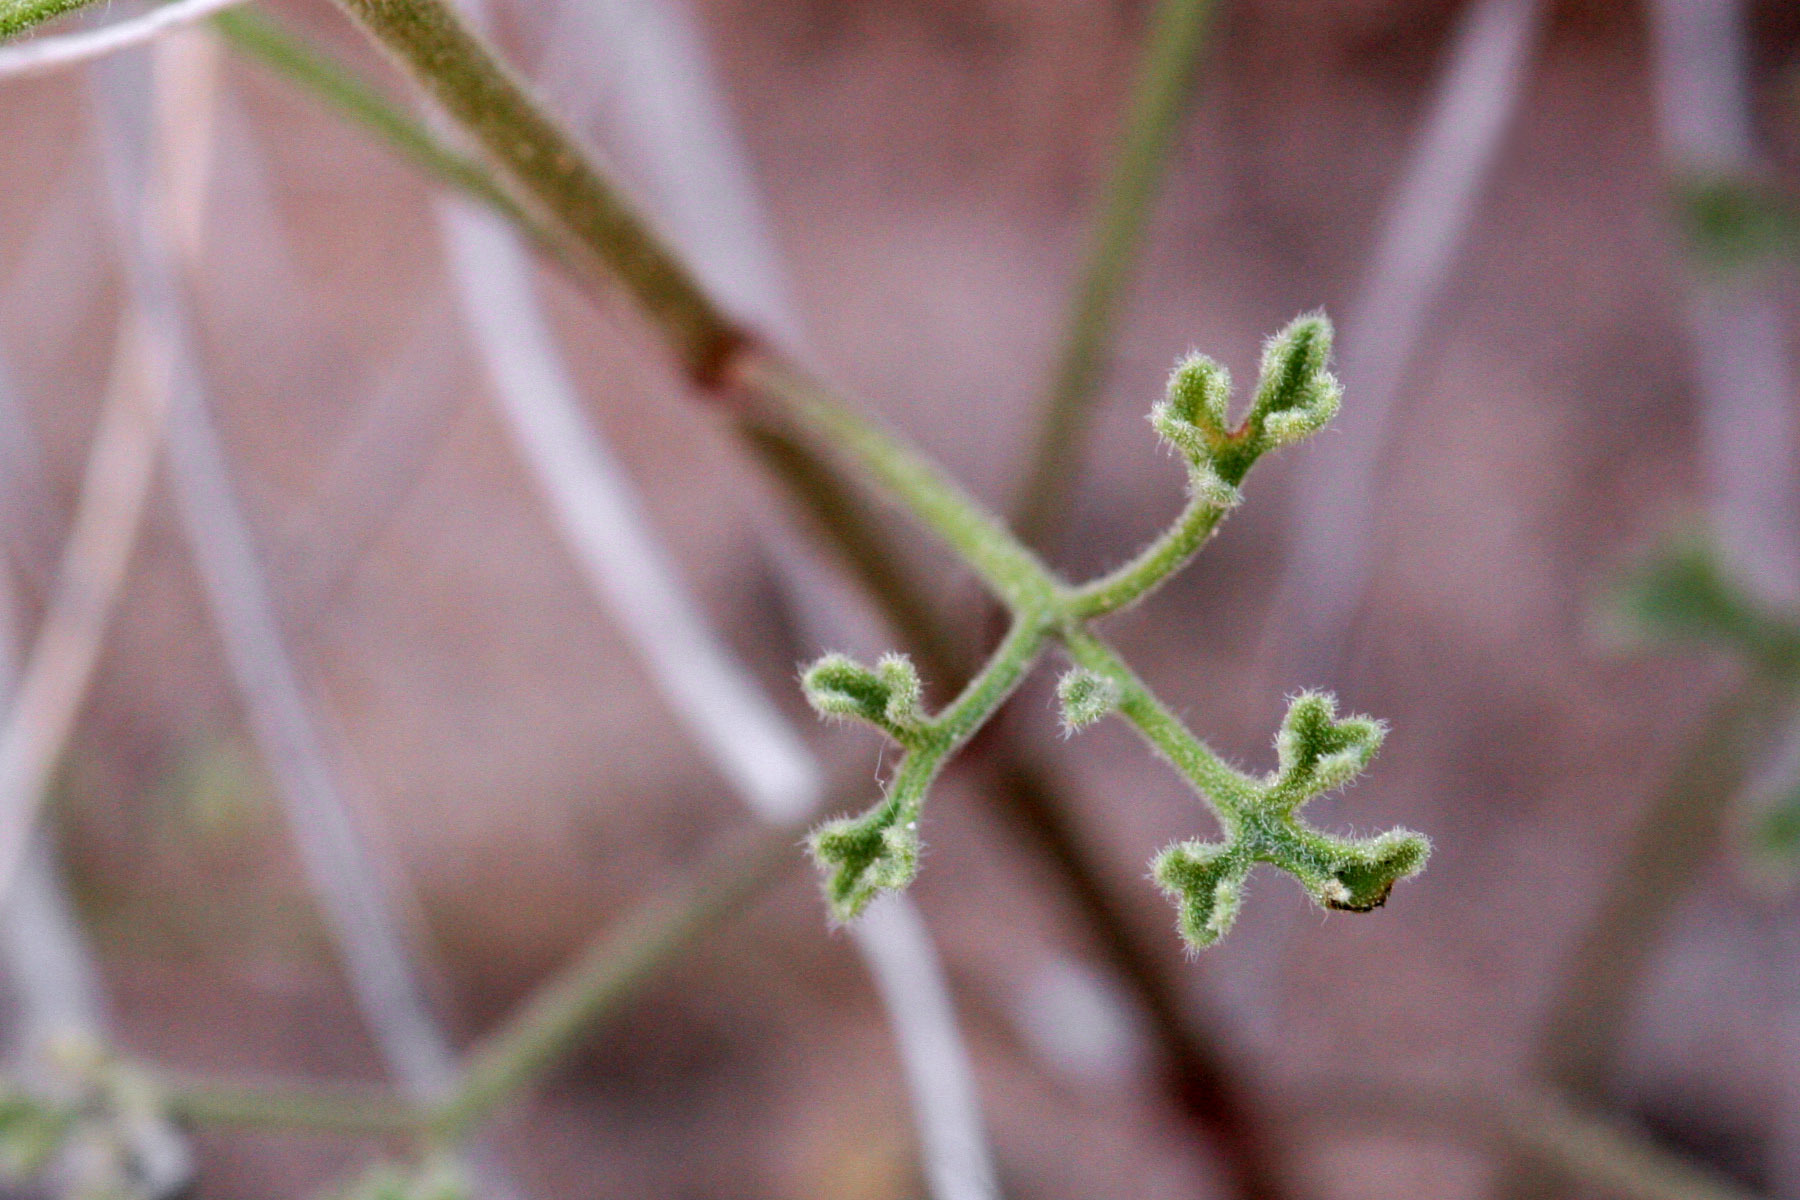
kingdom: Plantae
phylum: Tracheophyta
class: Magnoliopsida
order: Asterales
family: Asteraceae
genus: Laphamia
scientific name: Laphamia vaseyi
